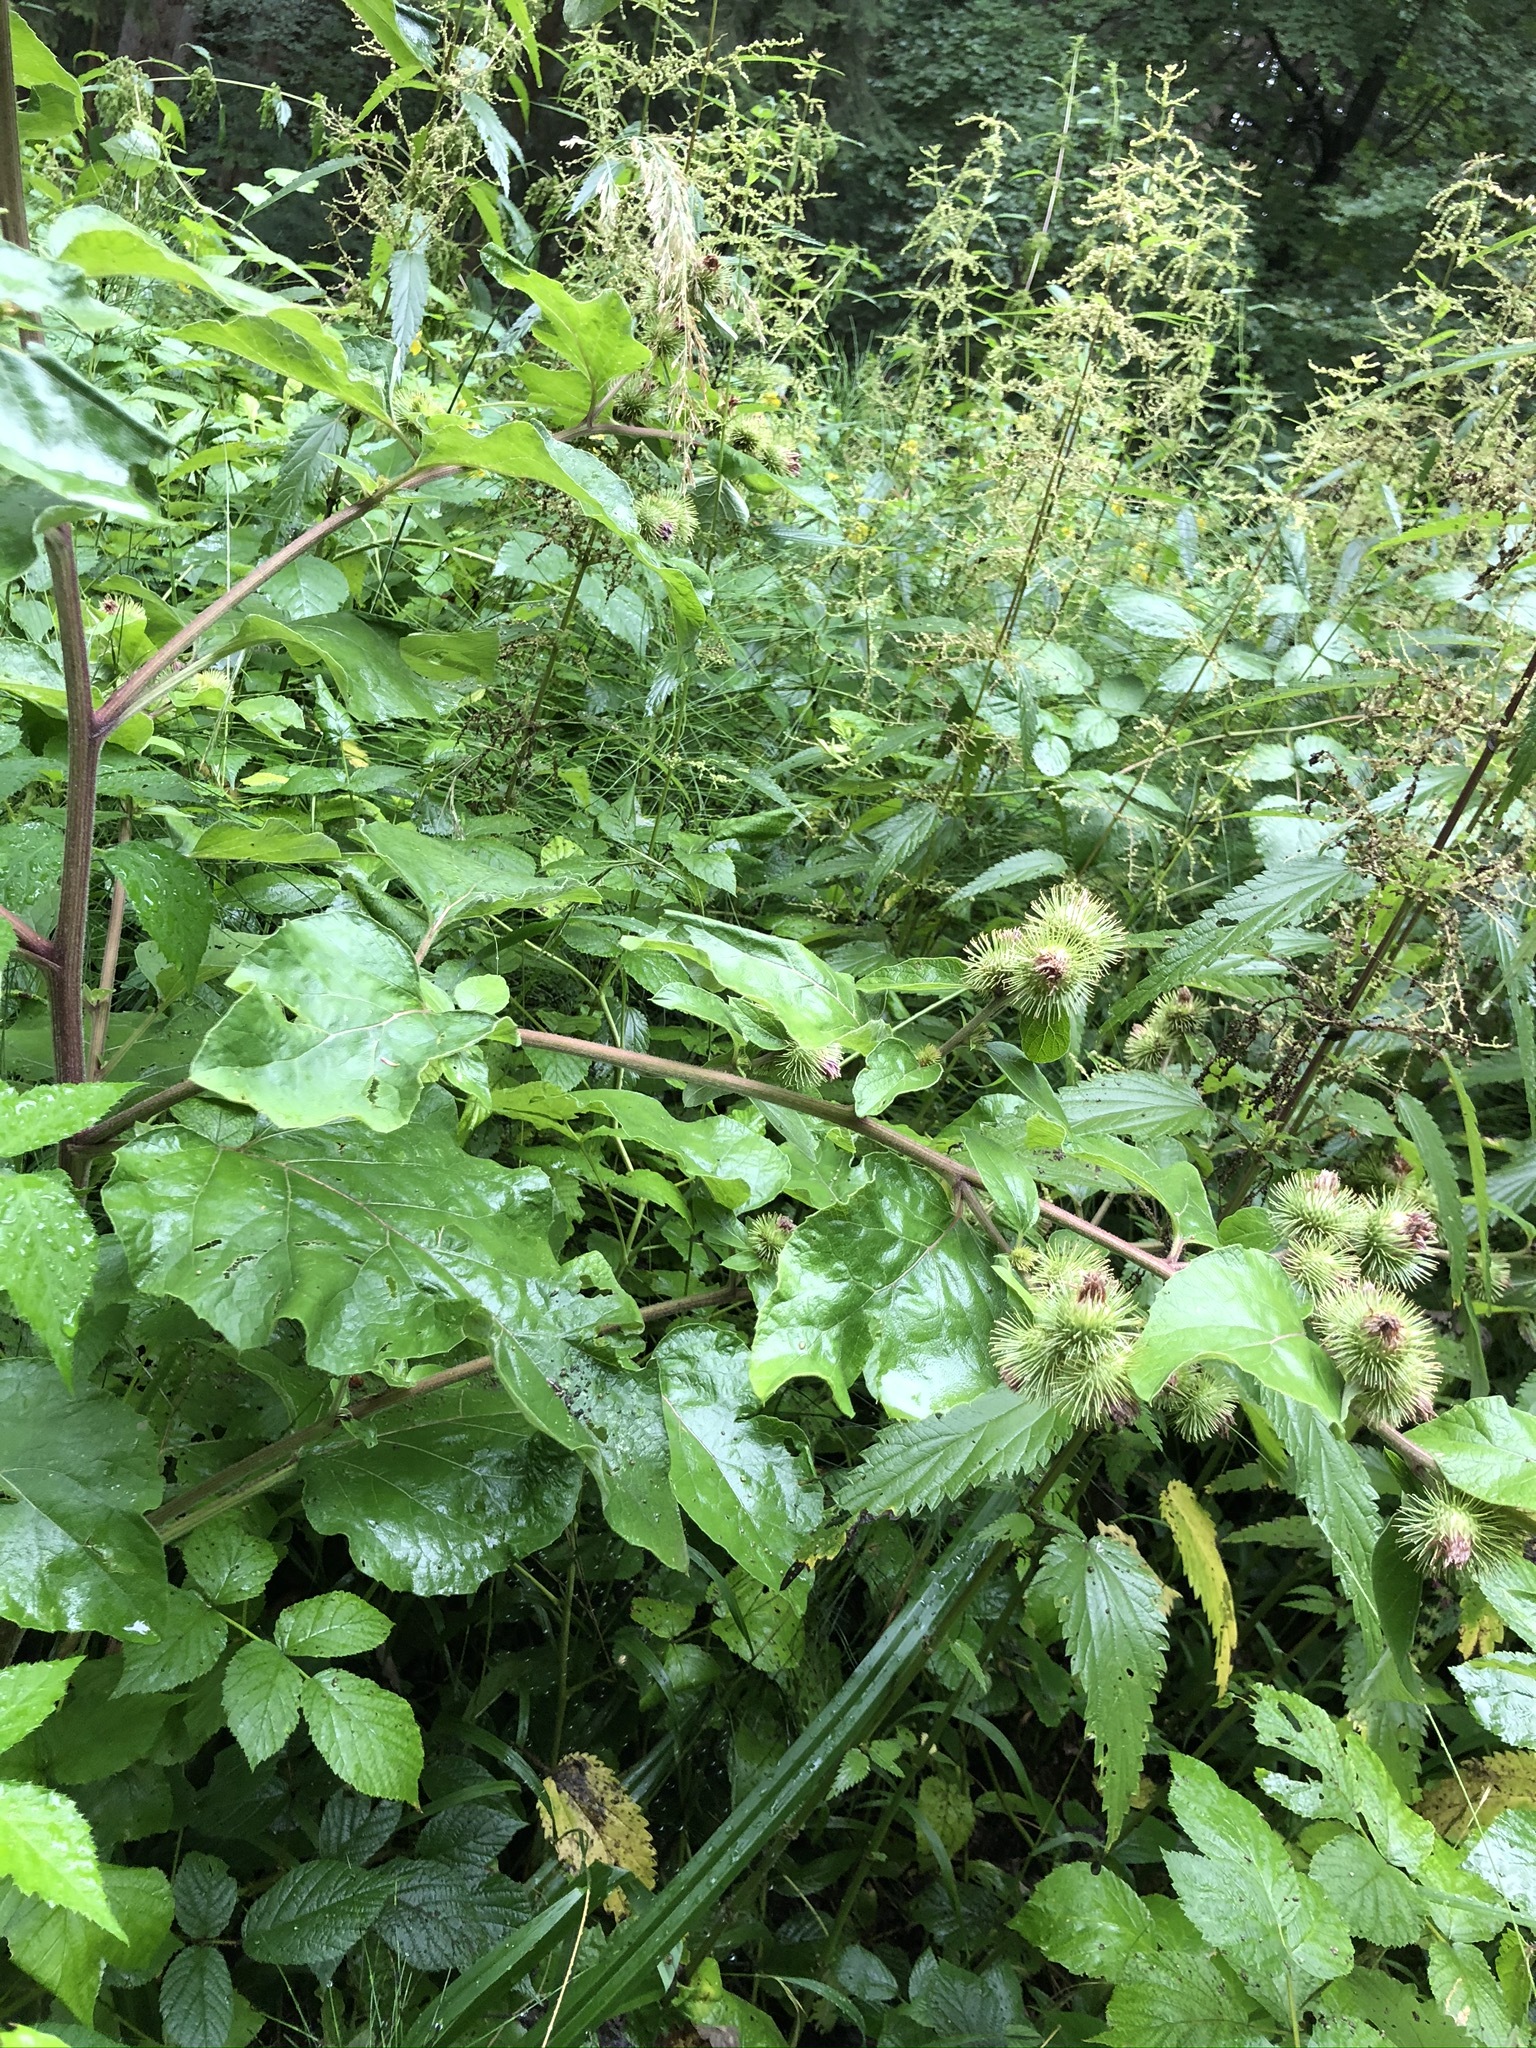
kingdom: Plantae
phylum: Tracheophyta
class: Magnoliopsida
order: Asterales
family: Asteraceae
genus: Arctium
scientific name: Arctium lappa
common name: Greater burdock
